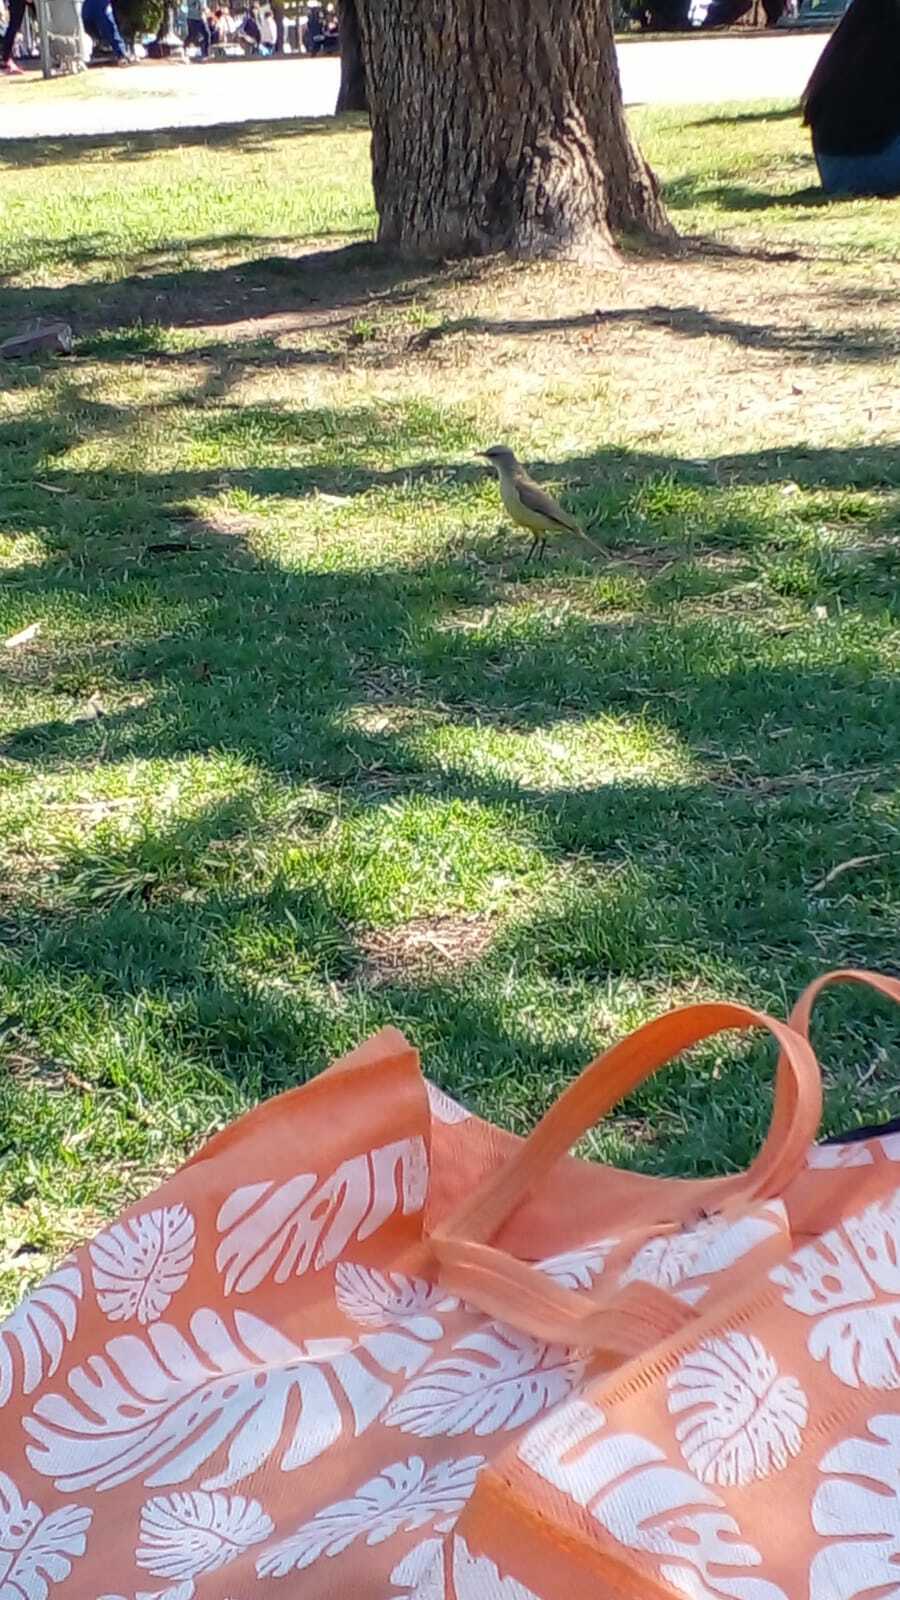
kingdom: Animalia
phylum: Chordata
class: Aves
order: Passeriformes
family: Tyrannidae
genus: Machetornis
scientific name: Machetornis rixosa
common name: Cattle tyrant
